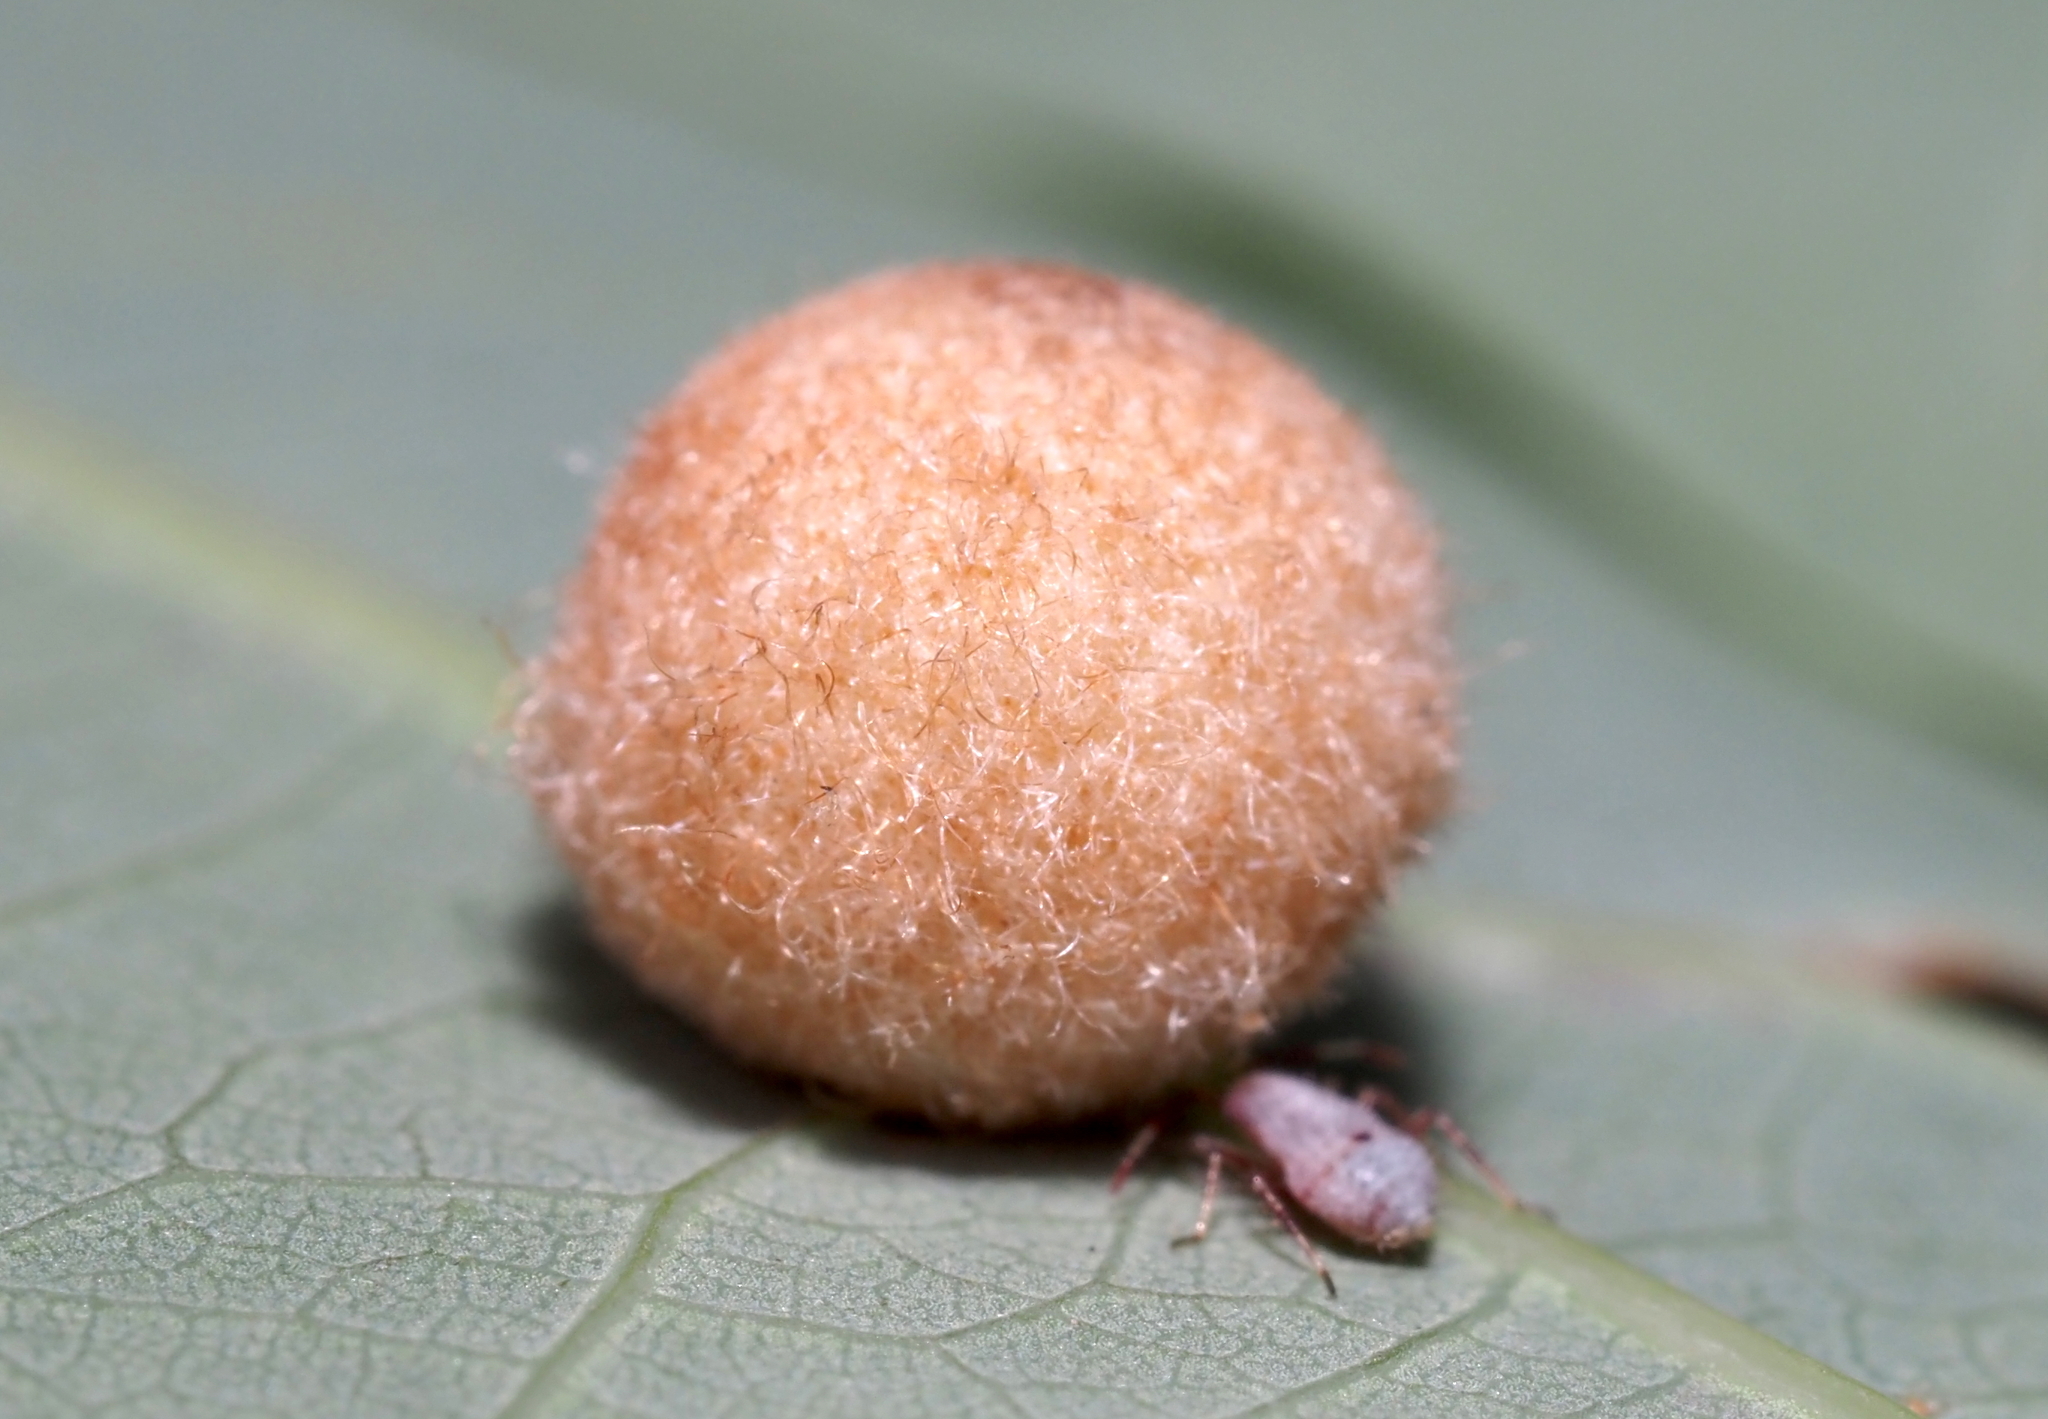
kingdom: Animalia
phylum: Arthropoda
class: Insecta
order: Hymenoptera
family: Cynipidae
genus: Philonix
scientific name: Philonix fulvicollis
